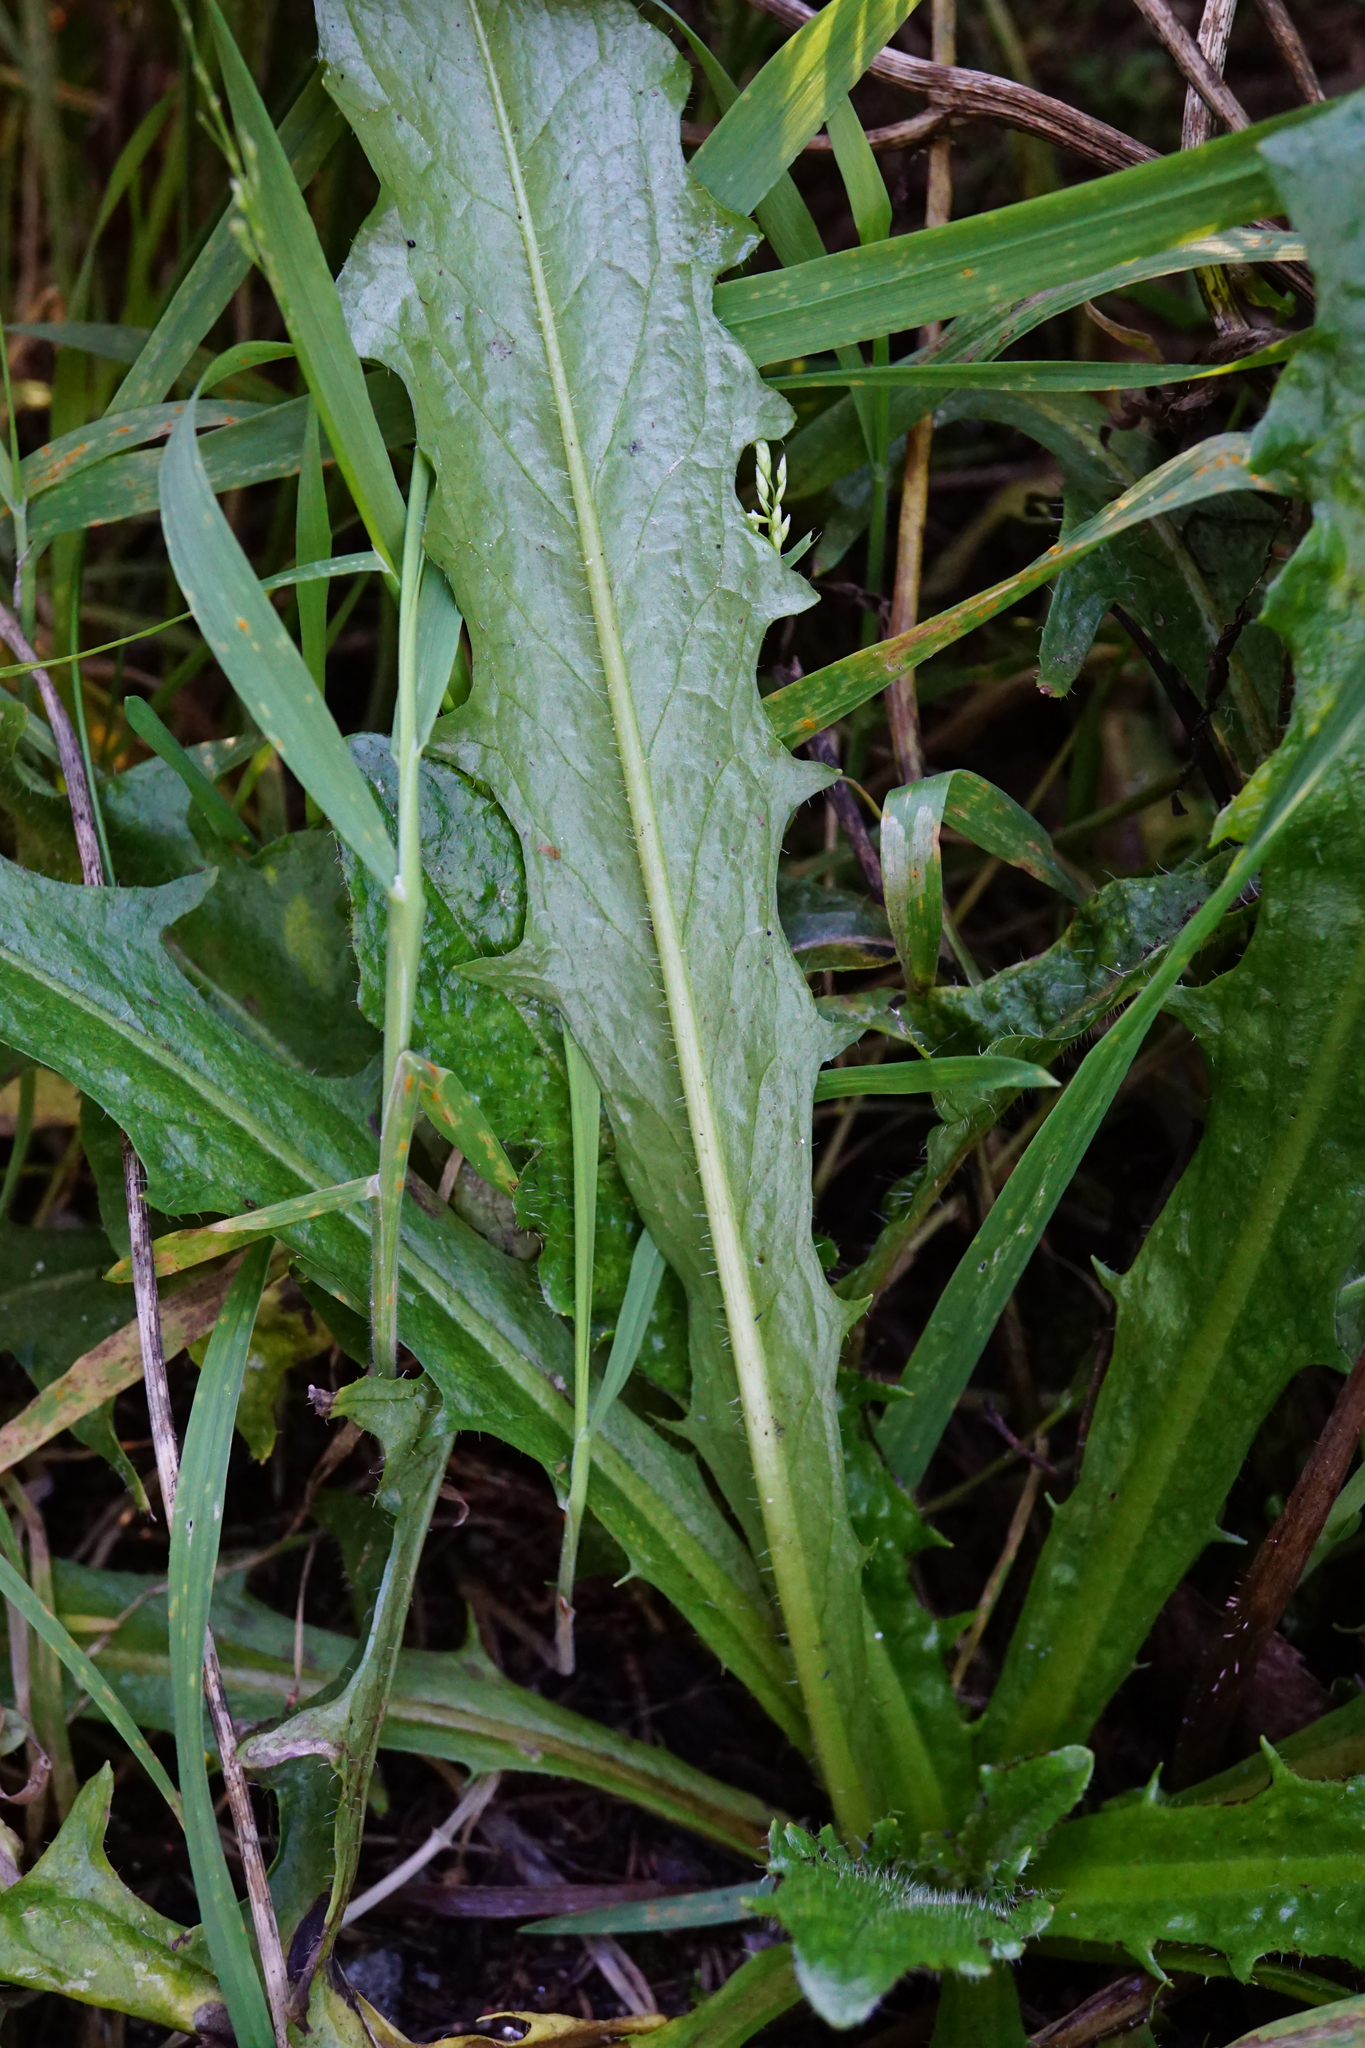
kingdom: Plantae
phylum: Tracheophyta
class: Magnoliopsida
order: Asterales
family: Asteraceae
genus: Hypochaeris
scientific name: Hypochaeris radicata
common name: Flatweed
